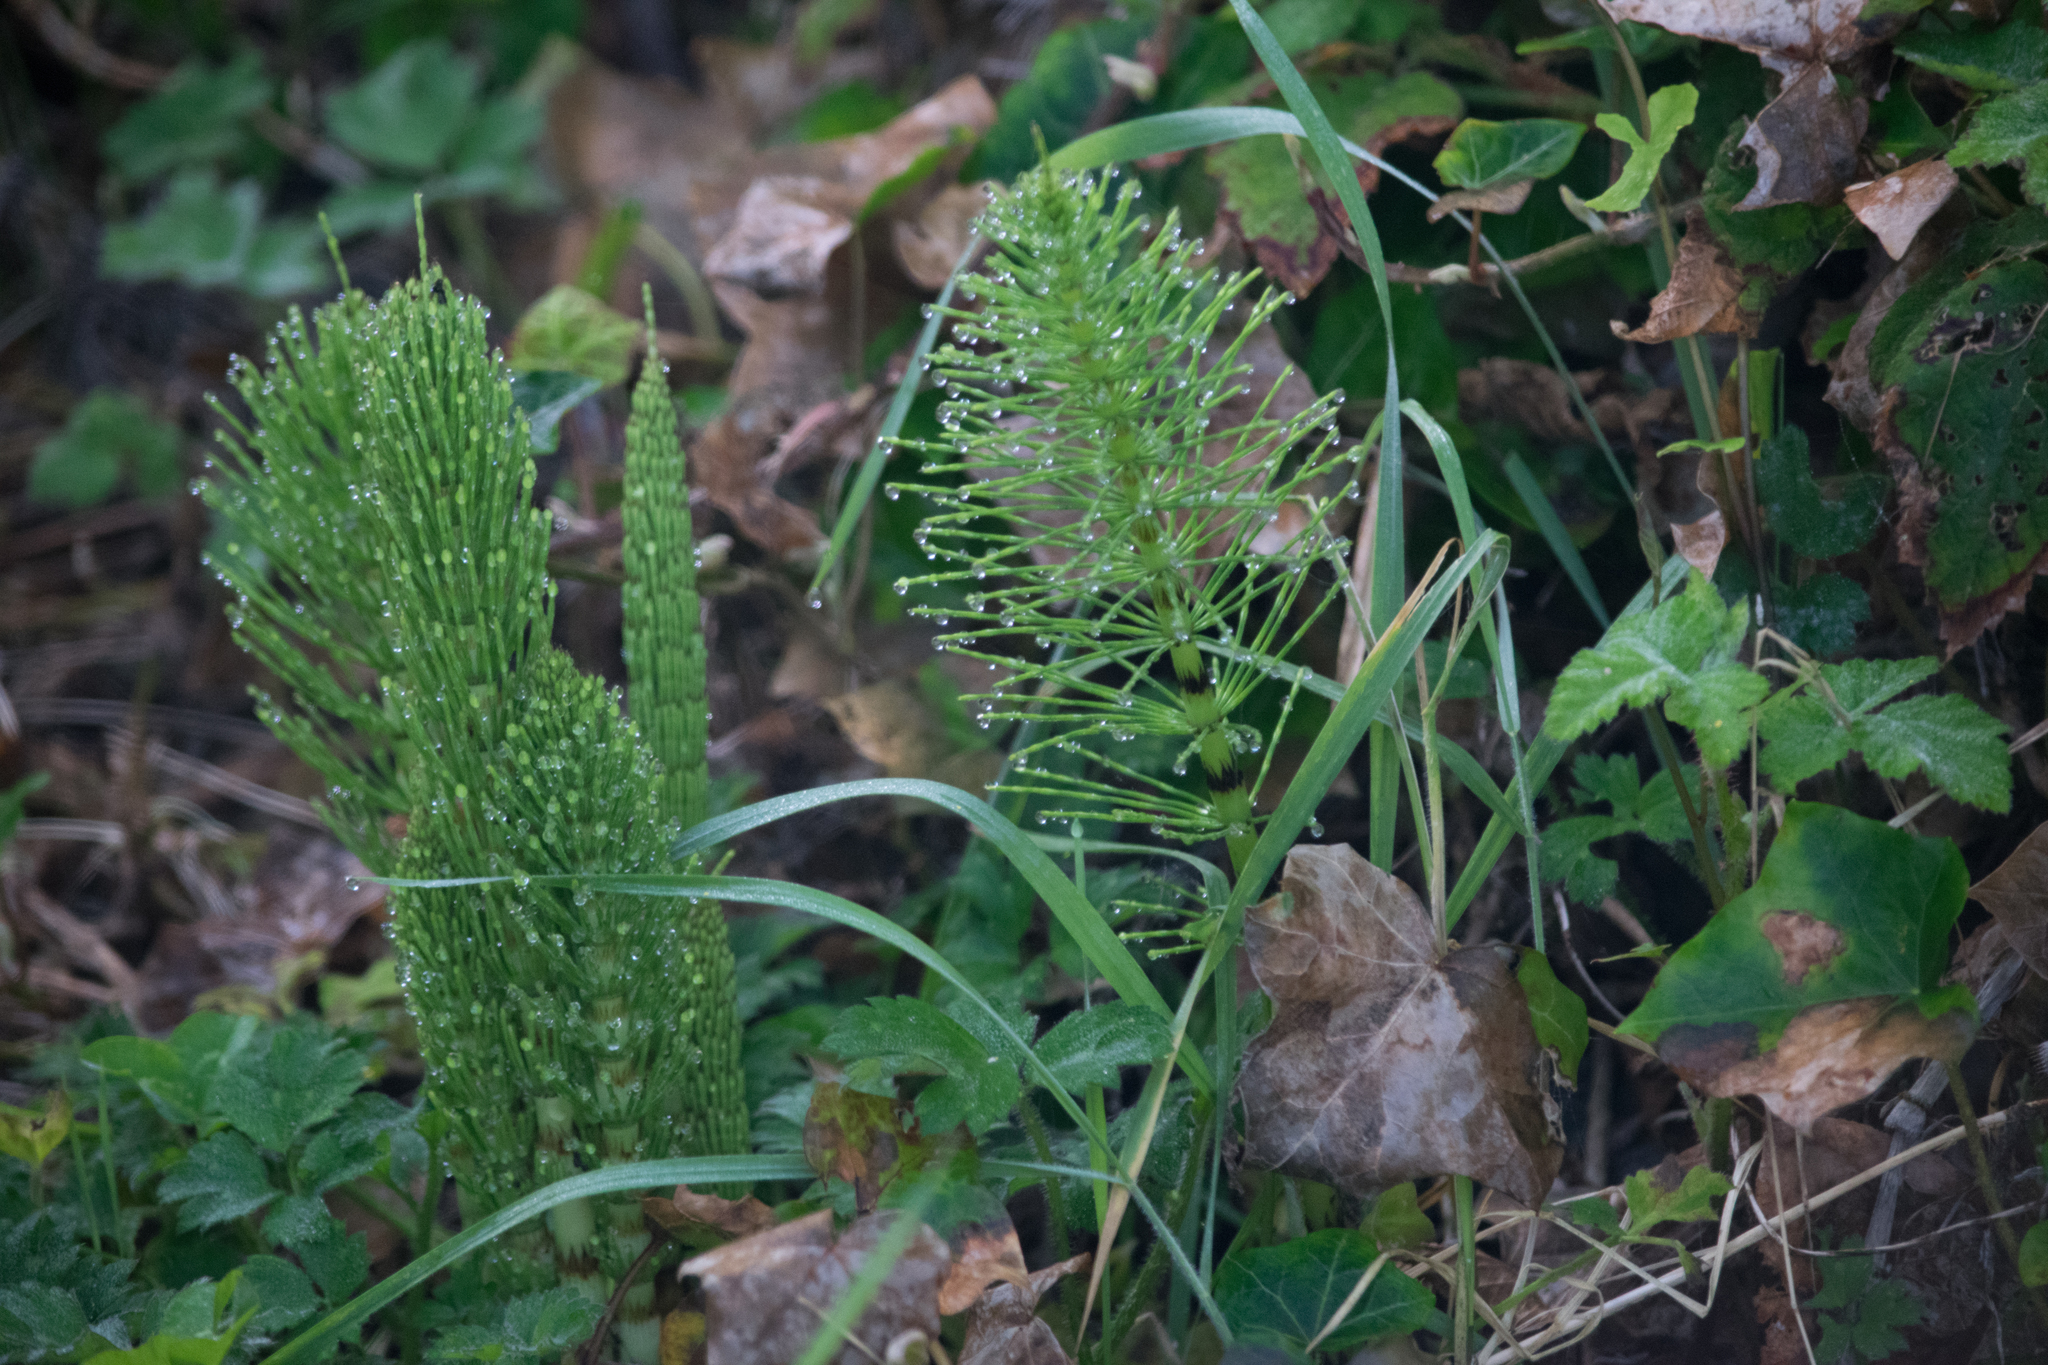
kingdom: Plantae
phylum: Tracheophyta
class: Polypodiopsida
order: Equisetales
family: Equisetaceae
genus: Equisetum
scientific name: Equisetum telmateia
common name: Great horsetail
